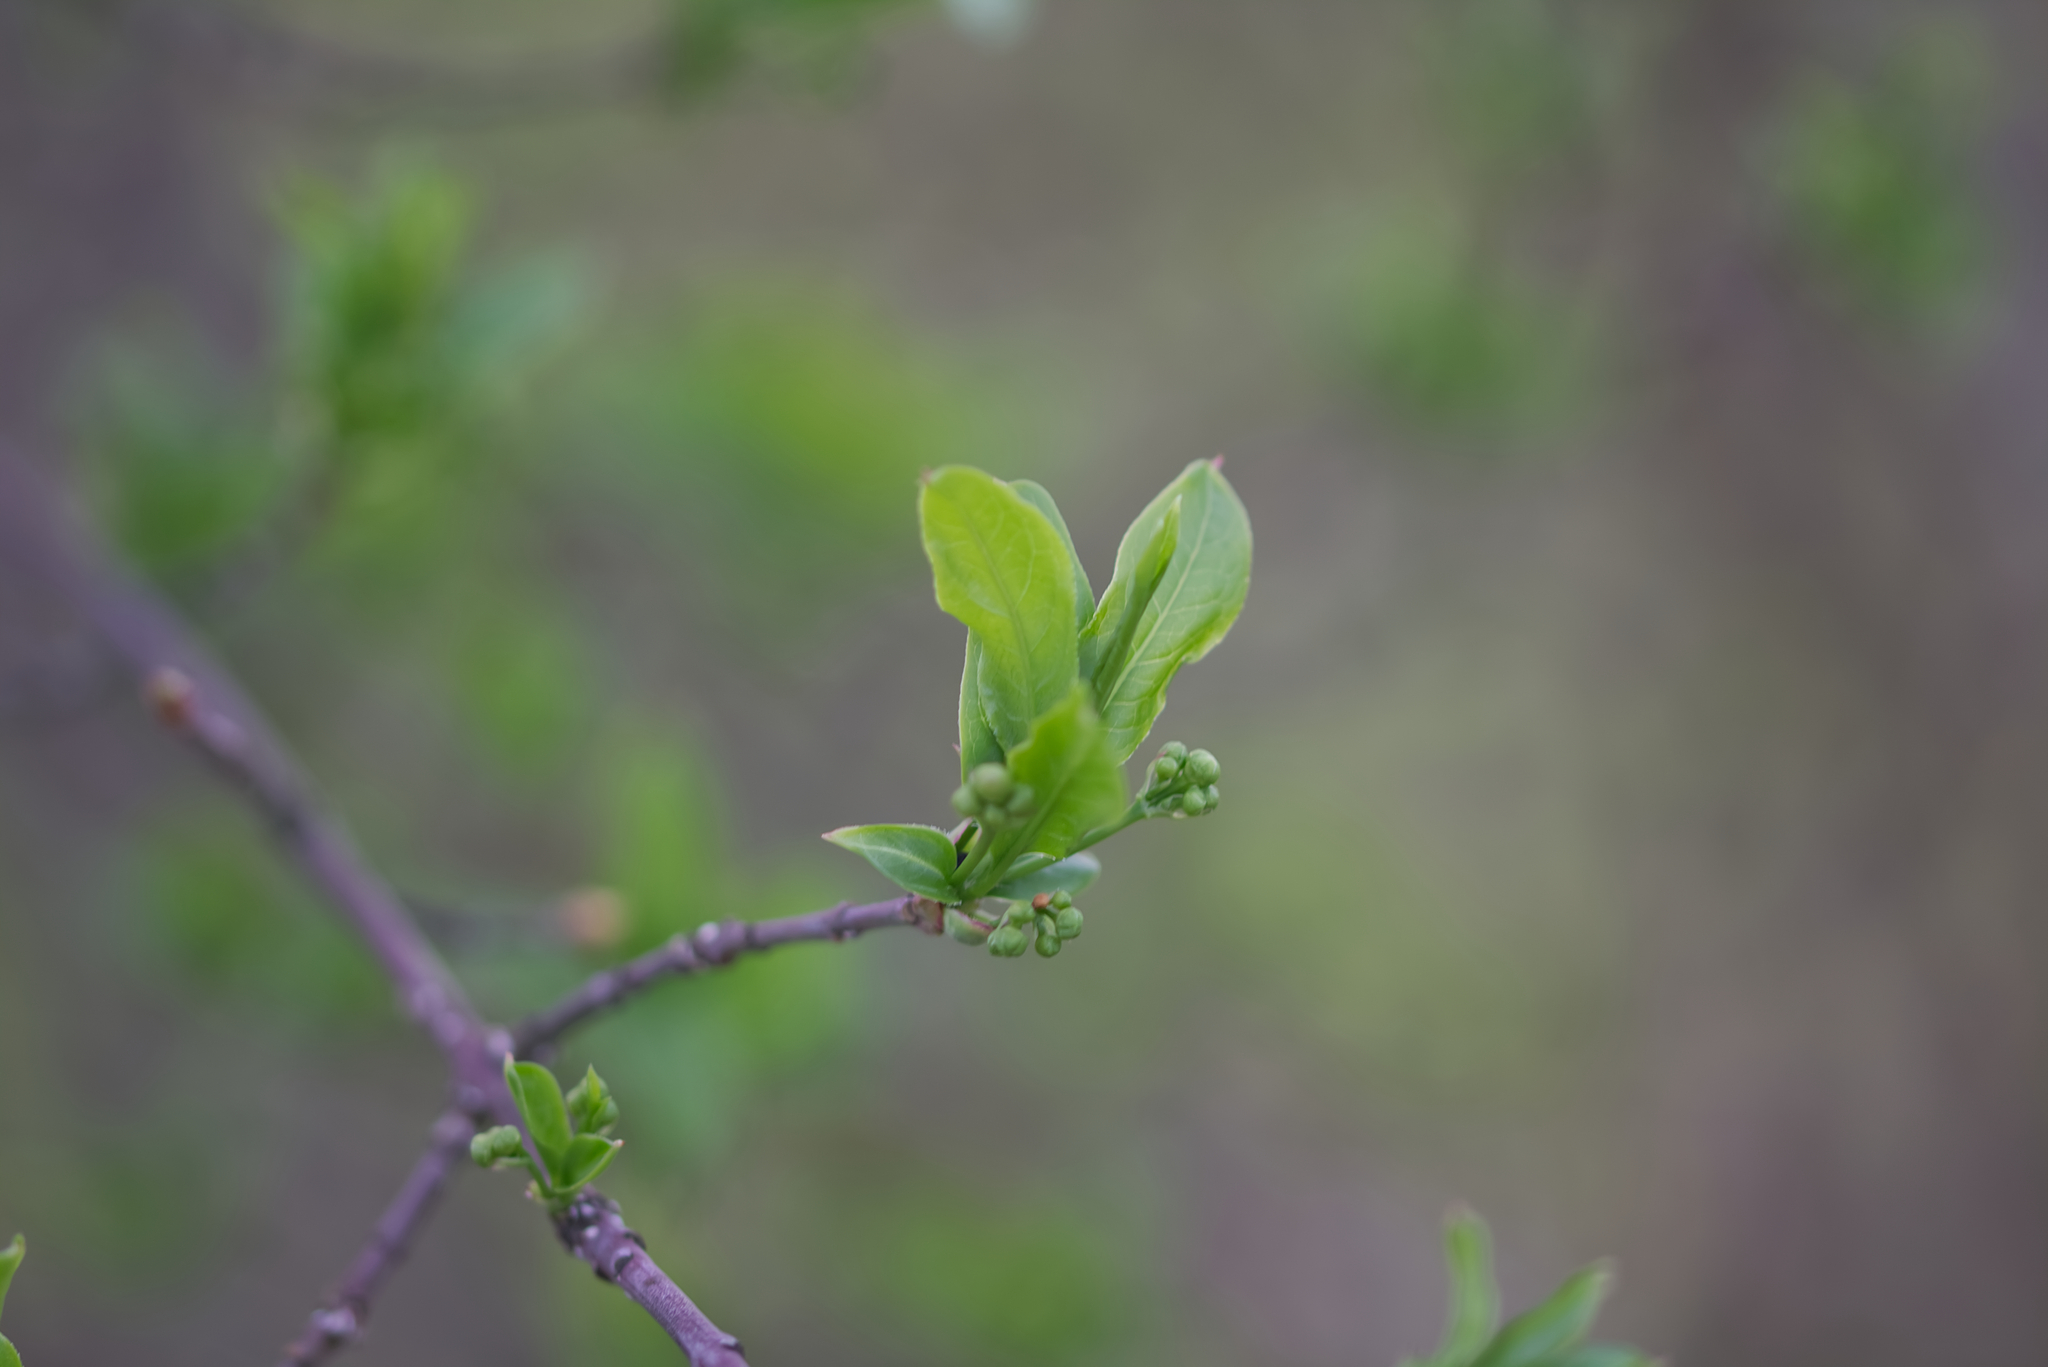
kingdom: Plantae
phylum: Tracheophyta
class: Magnoliopsida
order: Celastrales
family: Celastraceae
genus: Euonymus
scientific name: Euonymus europaeus
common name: Spindle
